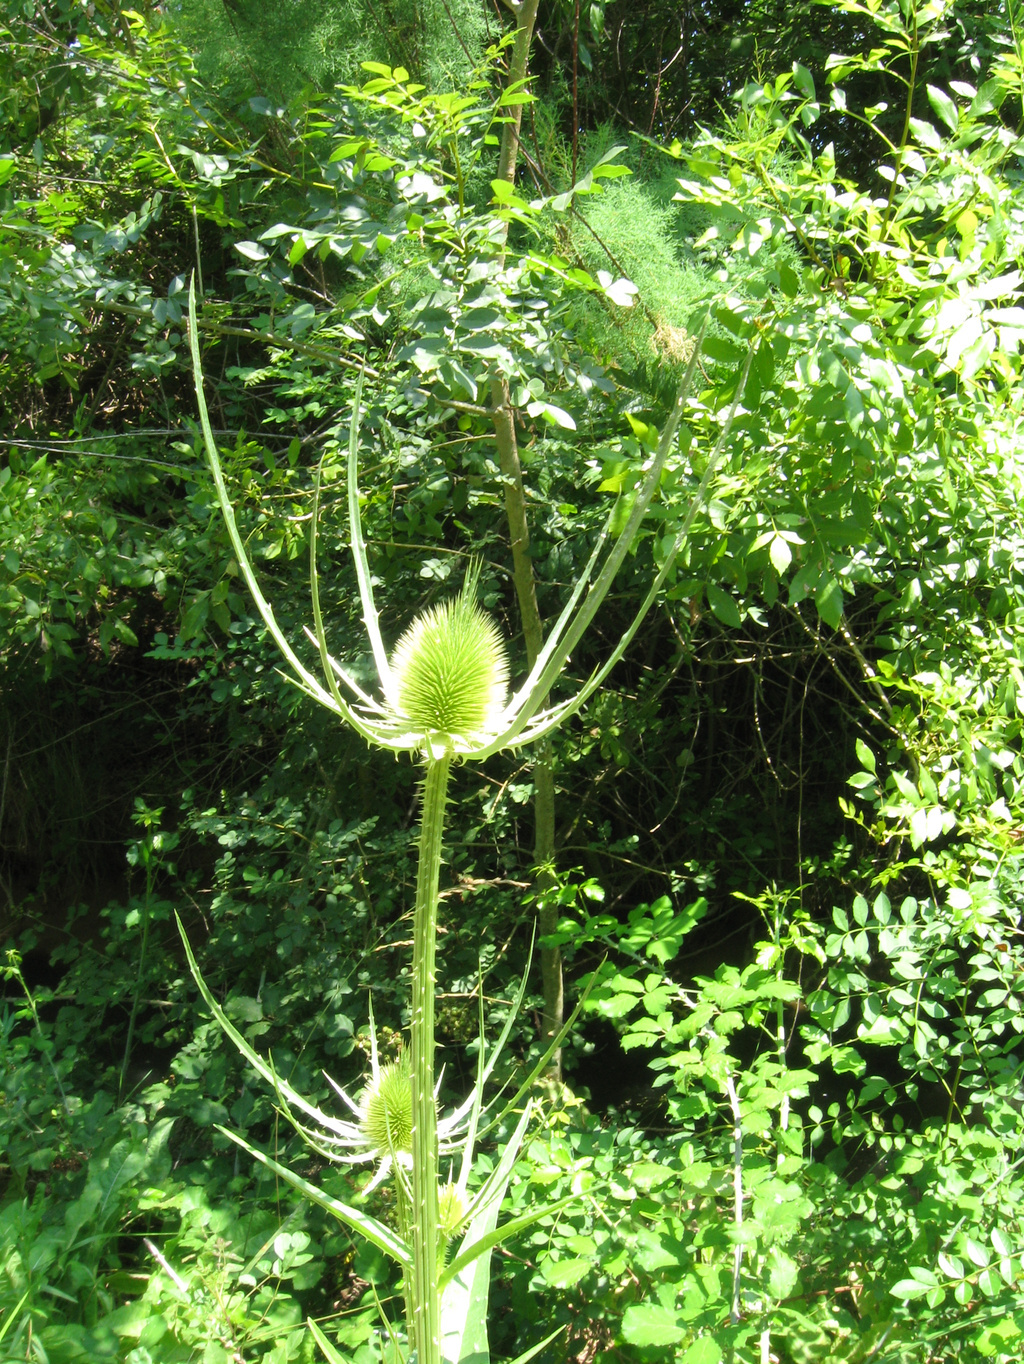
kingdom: Plantae
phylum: Tracheophyta
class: Magnoliopsida
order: Dipsacales
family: Caprifoliaceae
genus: Dipsacus
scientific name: Dipsacus fullonum
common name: Teasel
